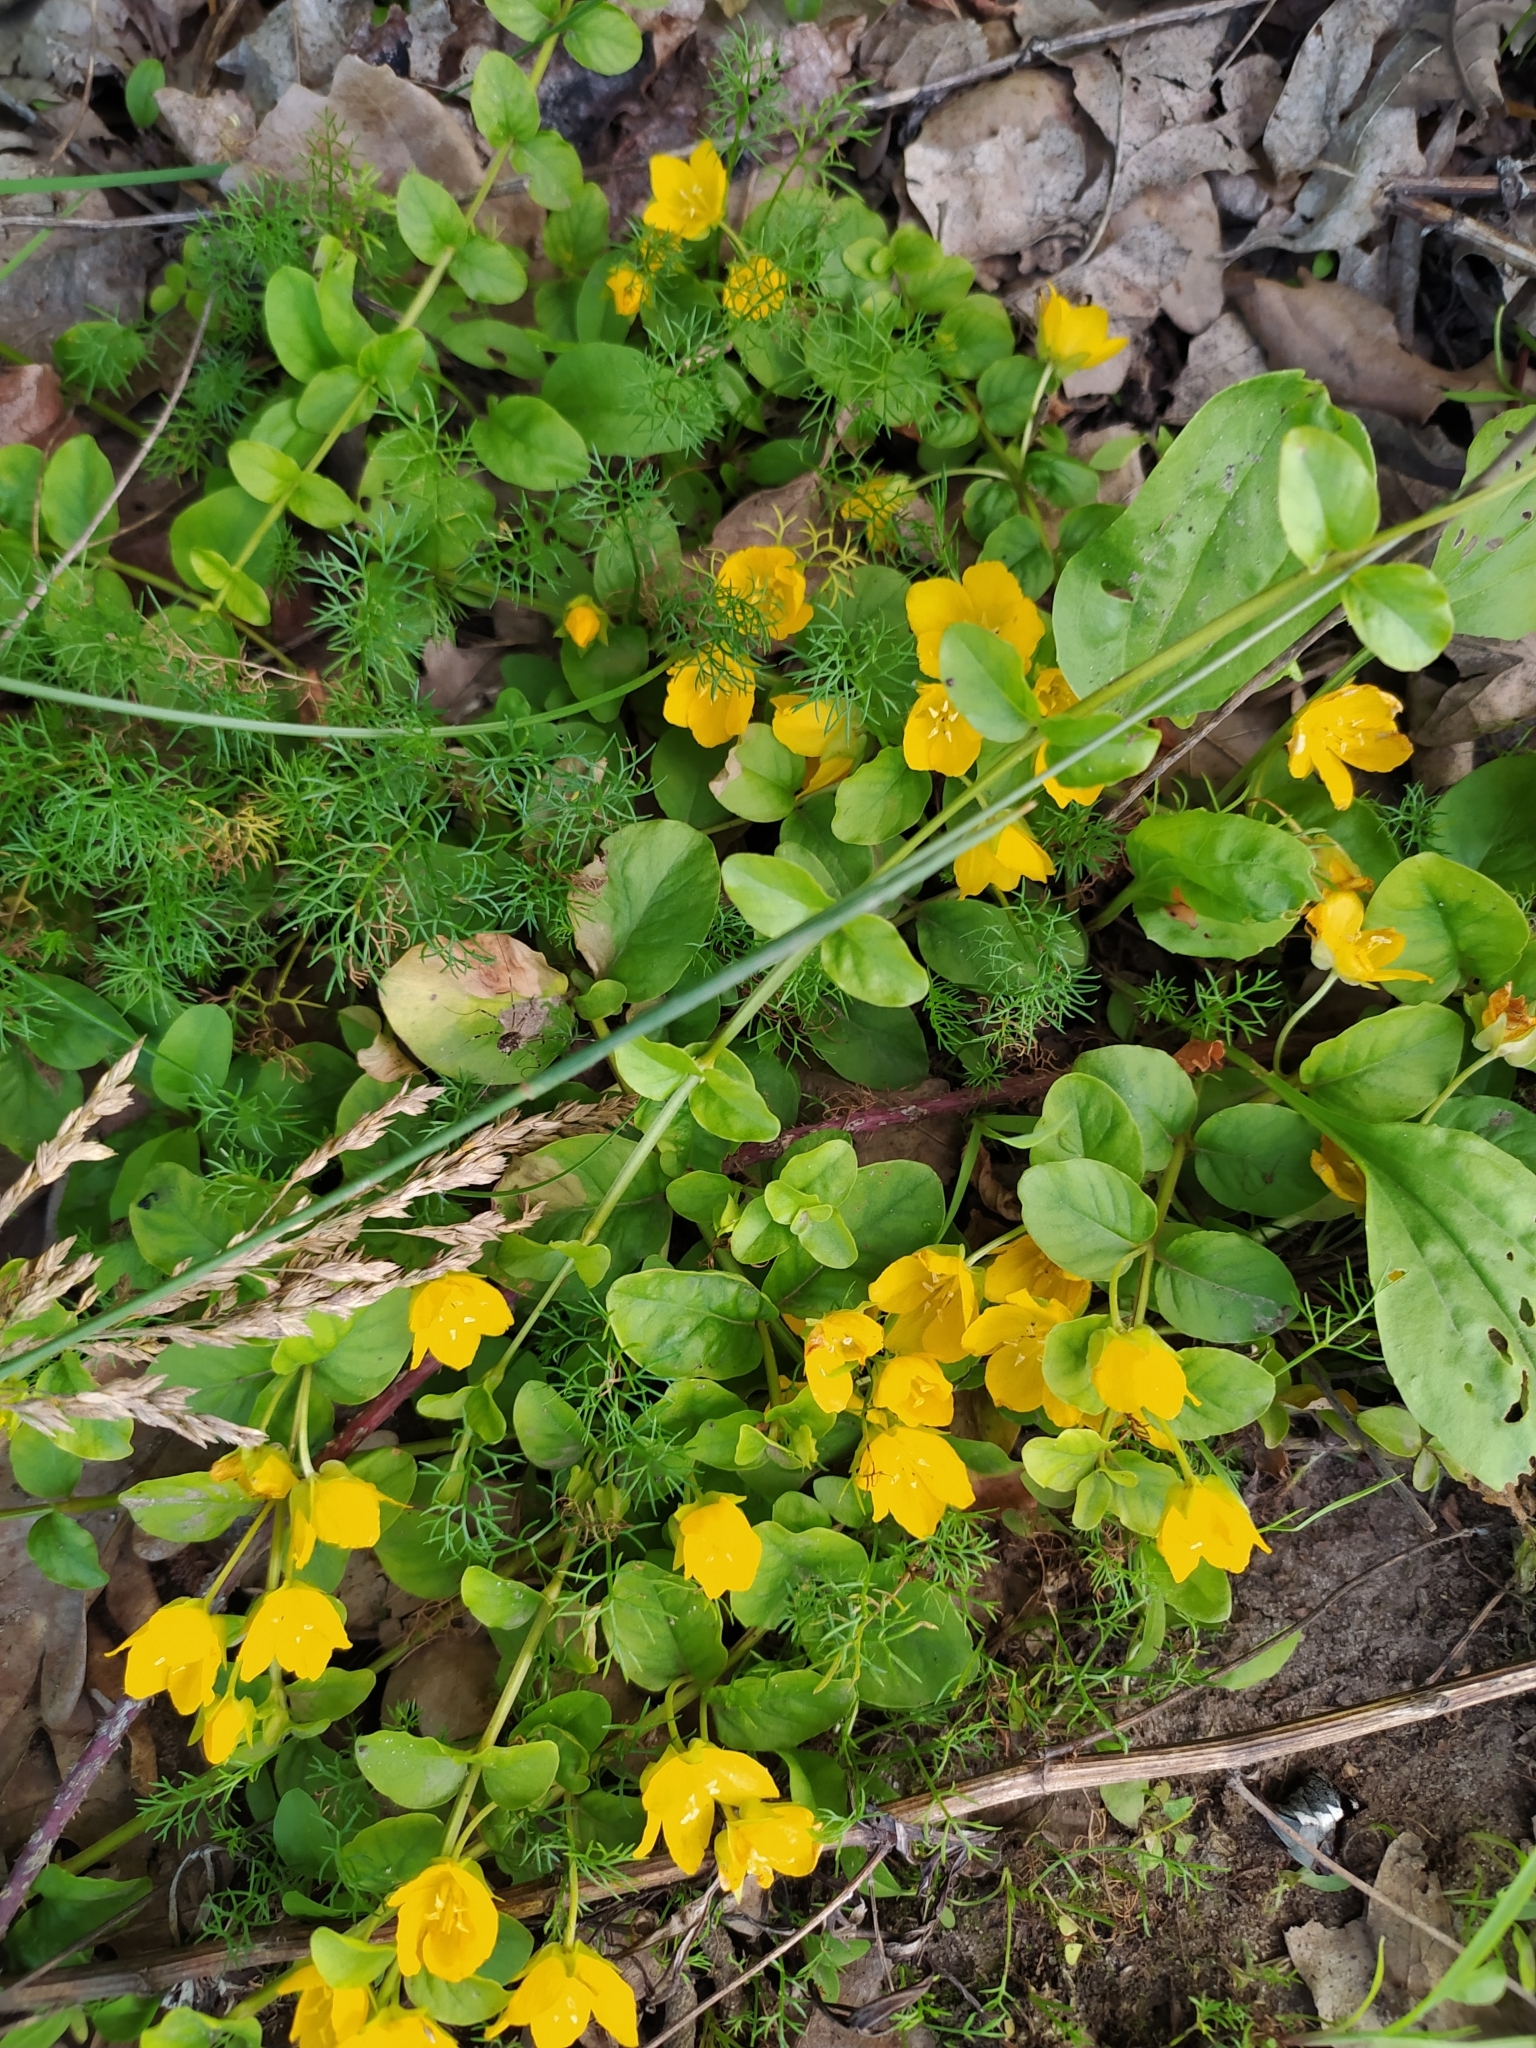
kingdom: Plantae
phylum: Tracheophyta
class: Magnoliopsida
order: Ericales
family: Primulaceae
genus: Lysimachia
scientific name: Lysimachia nummularia
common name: Moneywort
